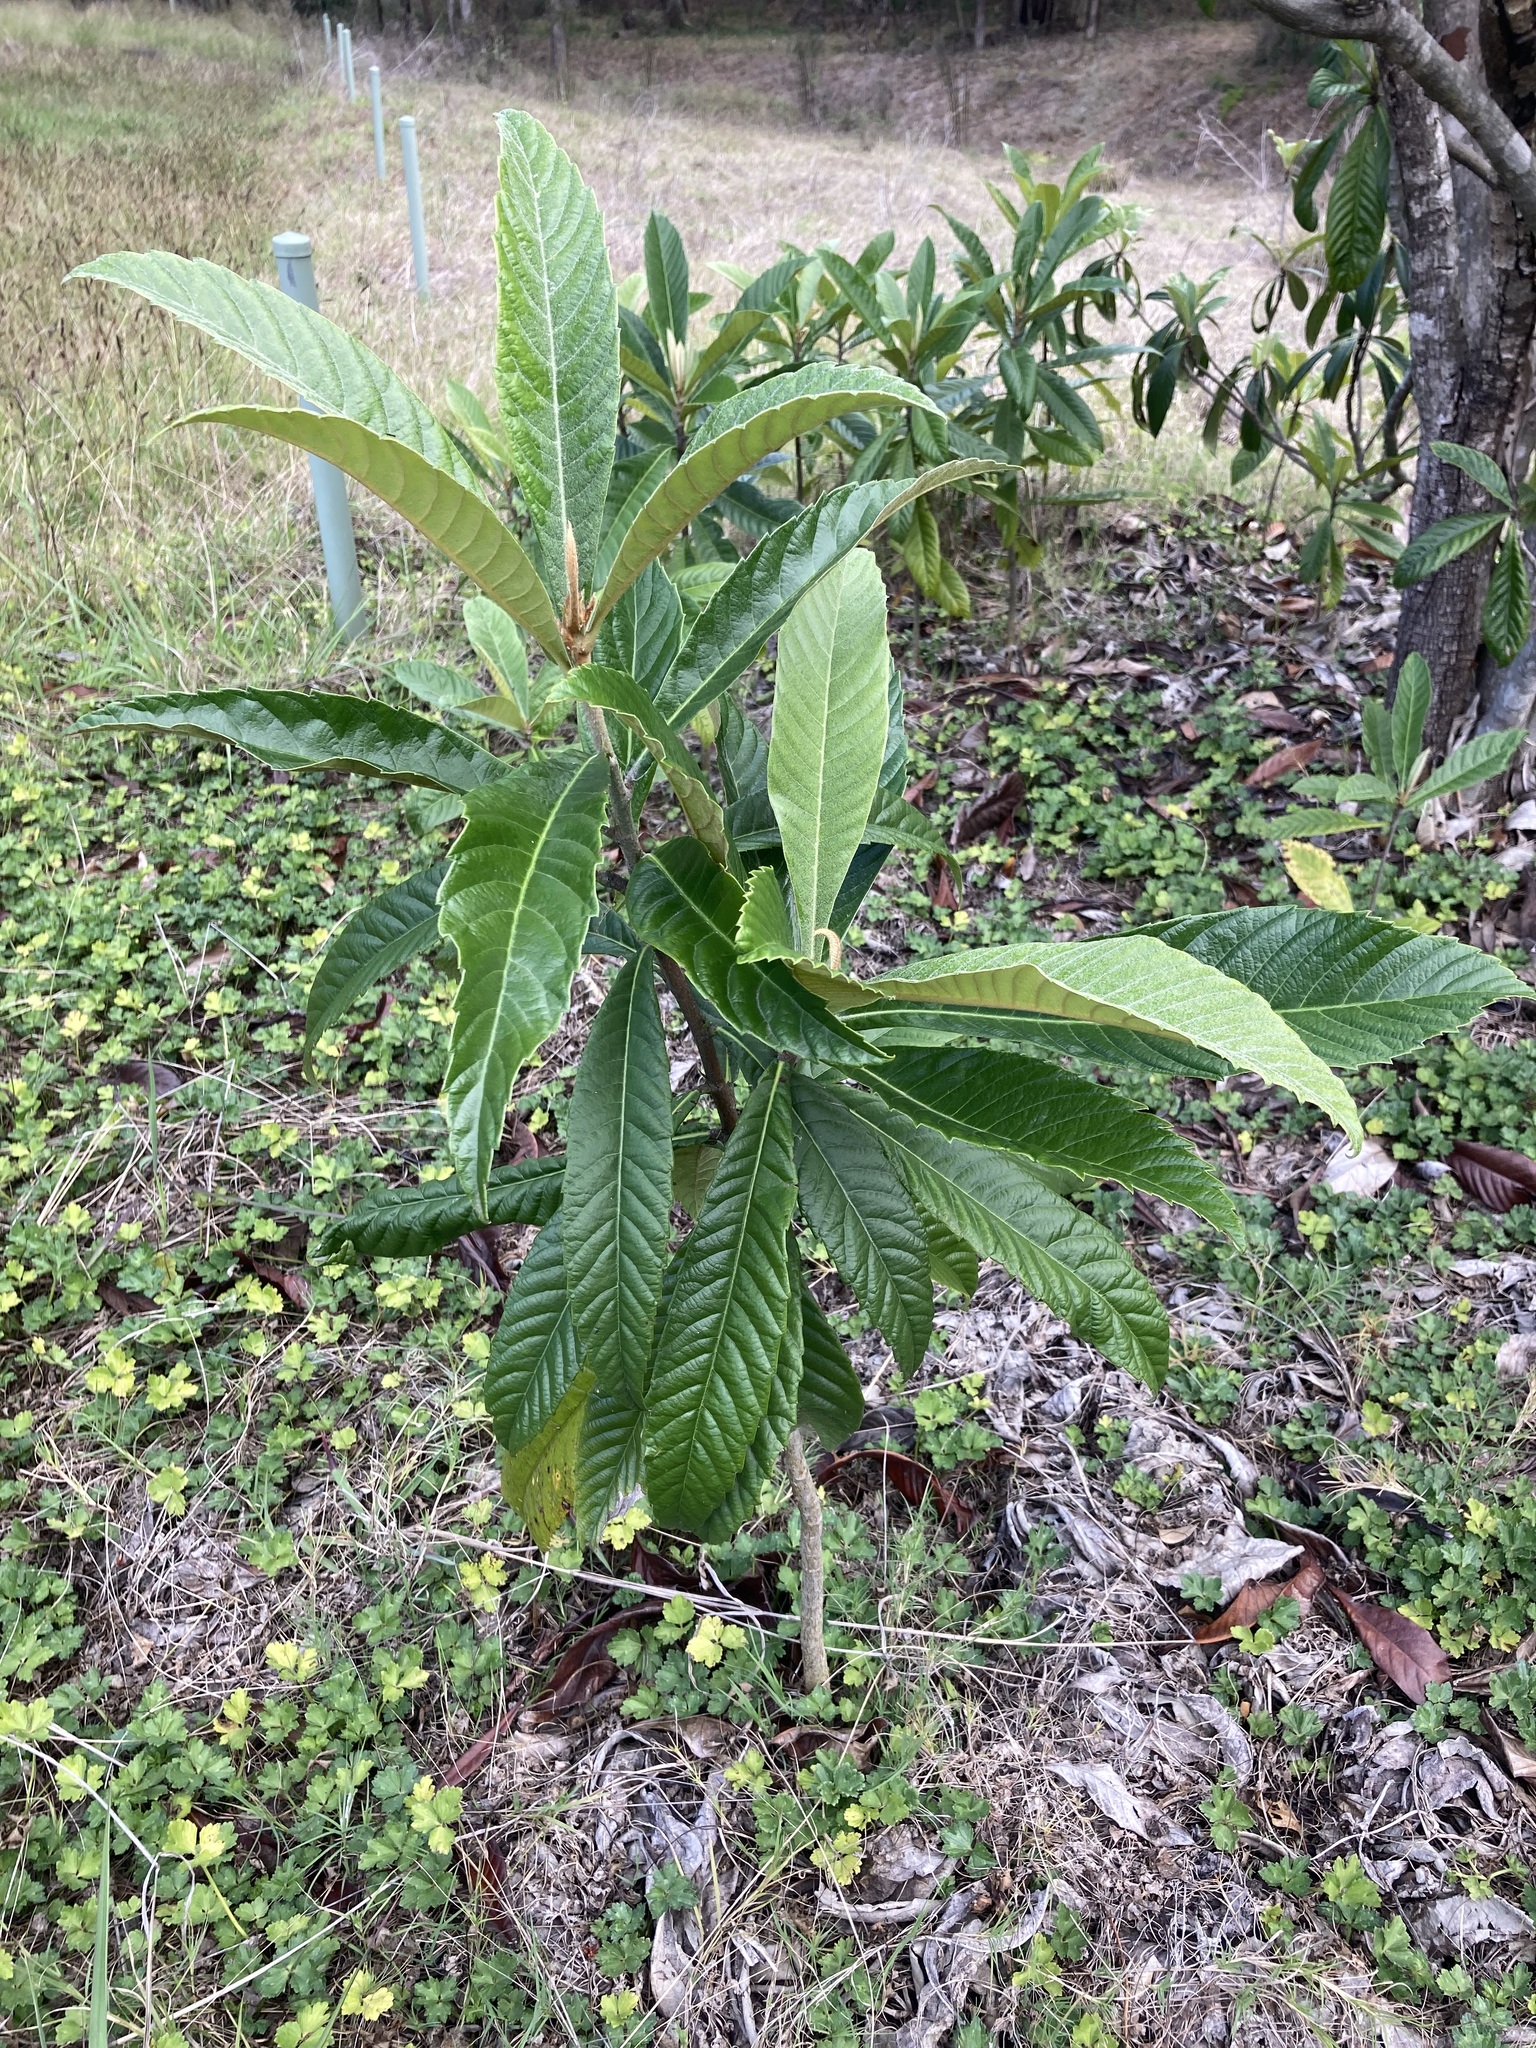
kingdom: Plantae
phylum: Tracheophyta
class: Magnoliopsida
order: Rosales
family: Rosaceae
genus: Rhaphiolepis
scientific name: Rhaphiolepis bibas
